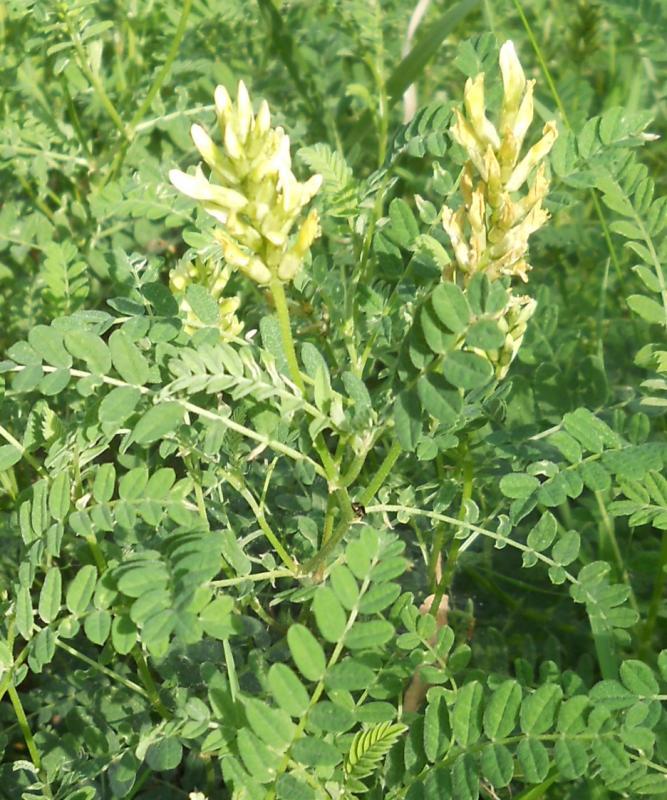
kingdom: Plantae
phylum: Tracheophyta
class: Magnoliopsida
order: Fabales
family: Fabaceae
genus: Astragalus
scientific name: Astragalus cicer
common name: Chick-pea milk-vetch
